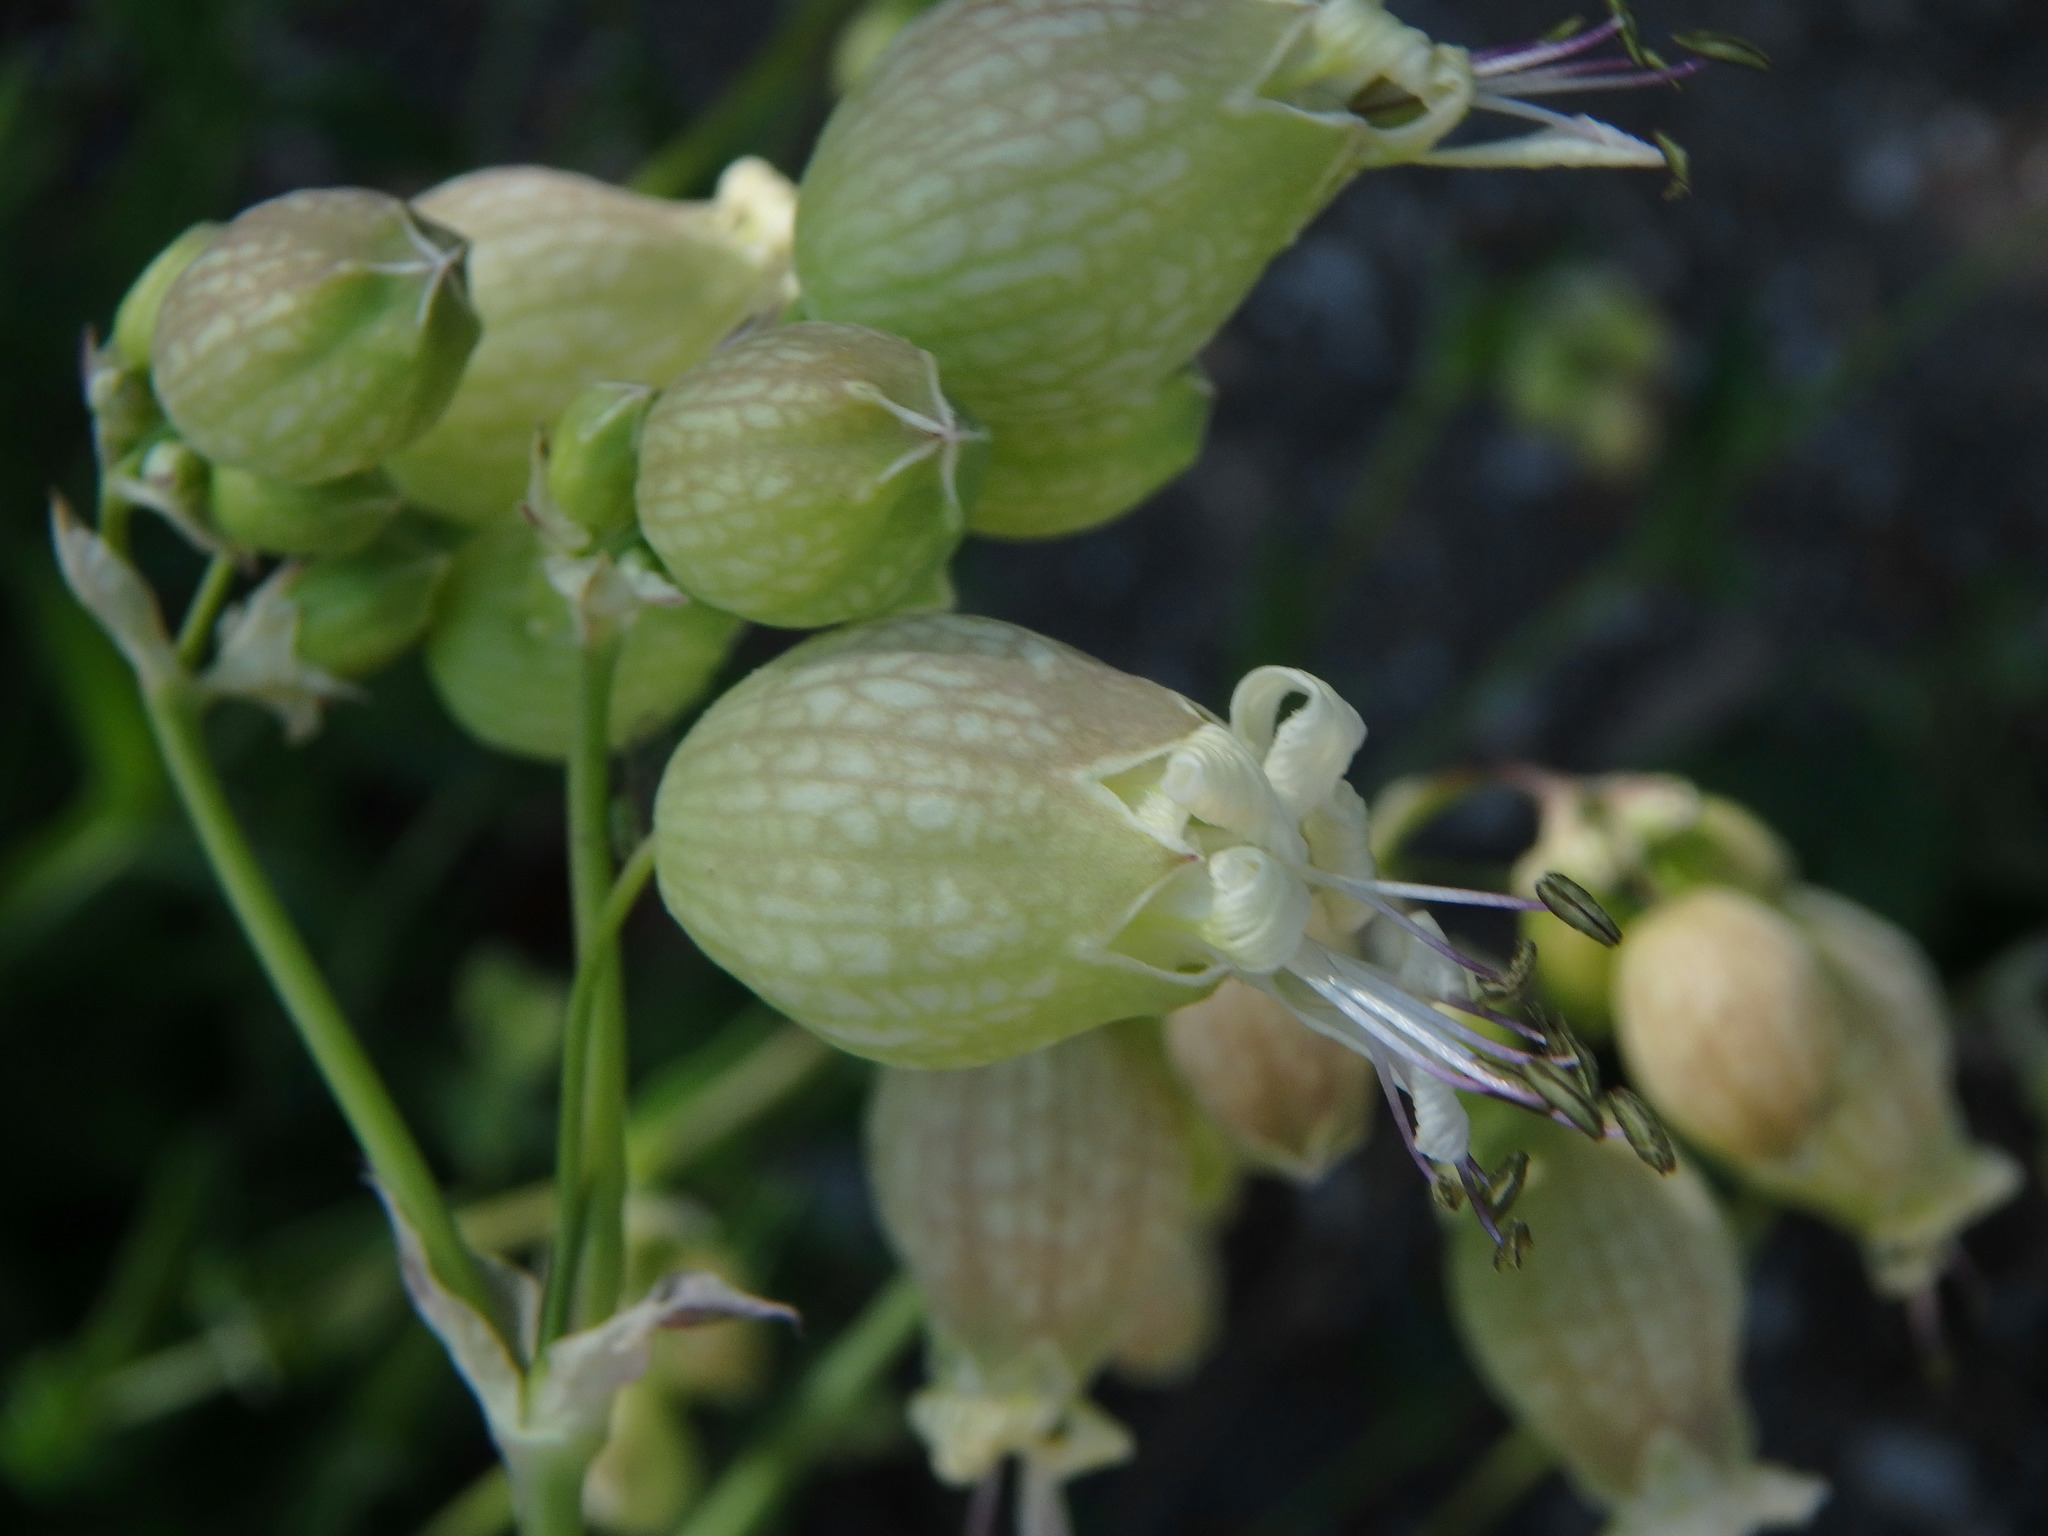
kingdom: Plantae
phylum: Tracheophyta
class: Magnoliopsida
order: Caryophyllales
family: Caryophyllaceae
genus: Silene
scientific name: Silene vulgaris
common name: Bladder campion
